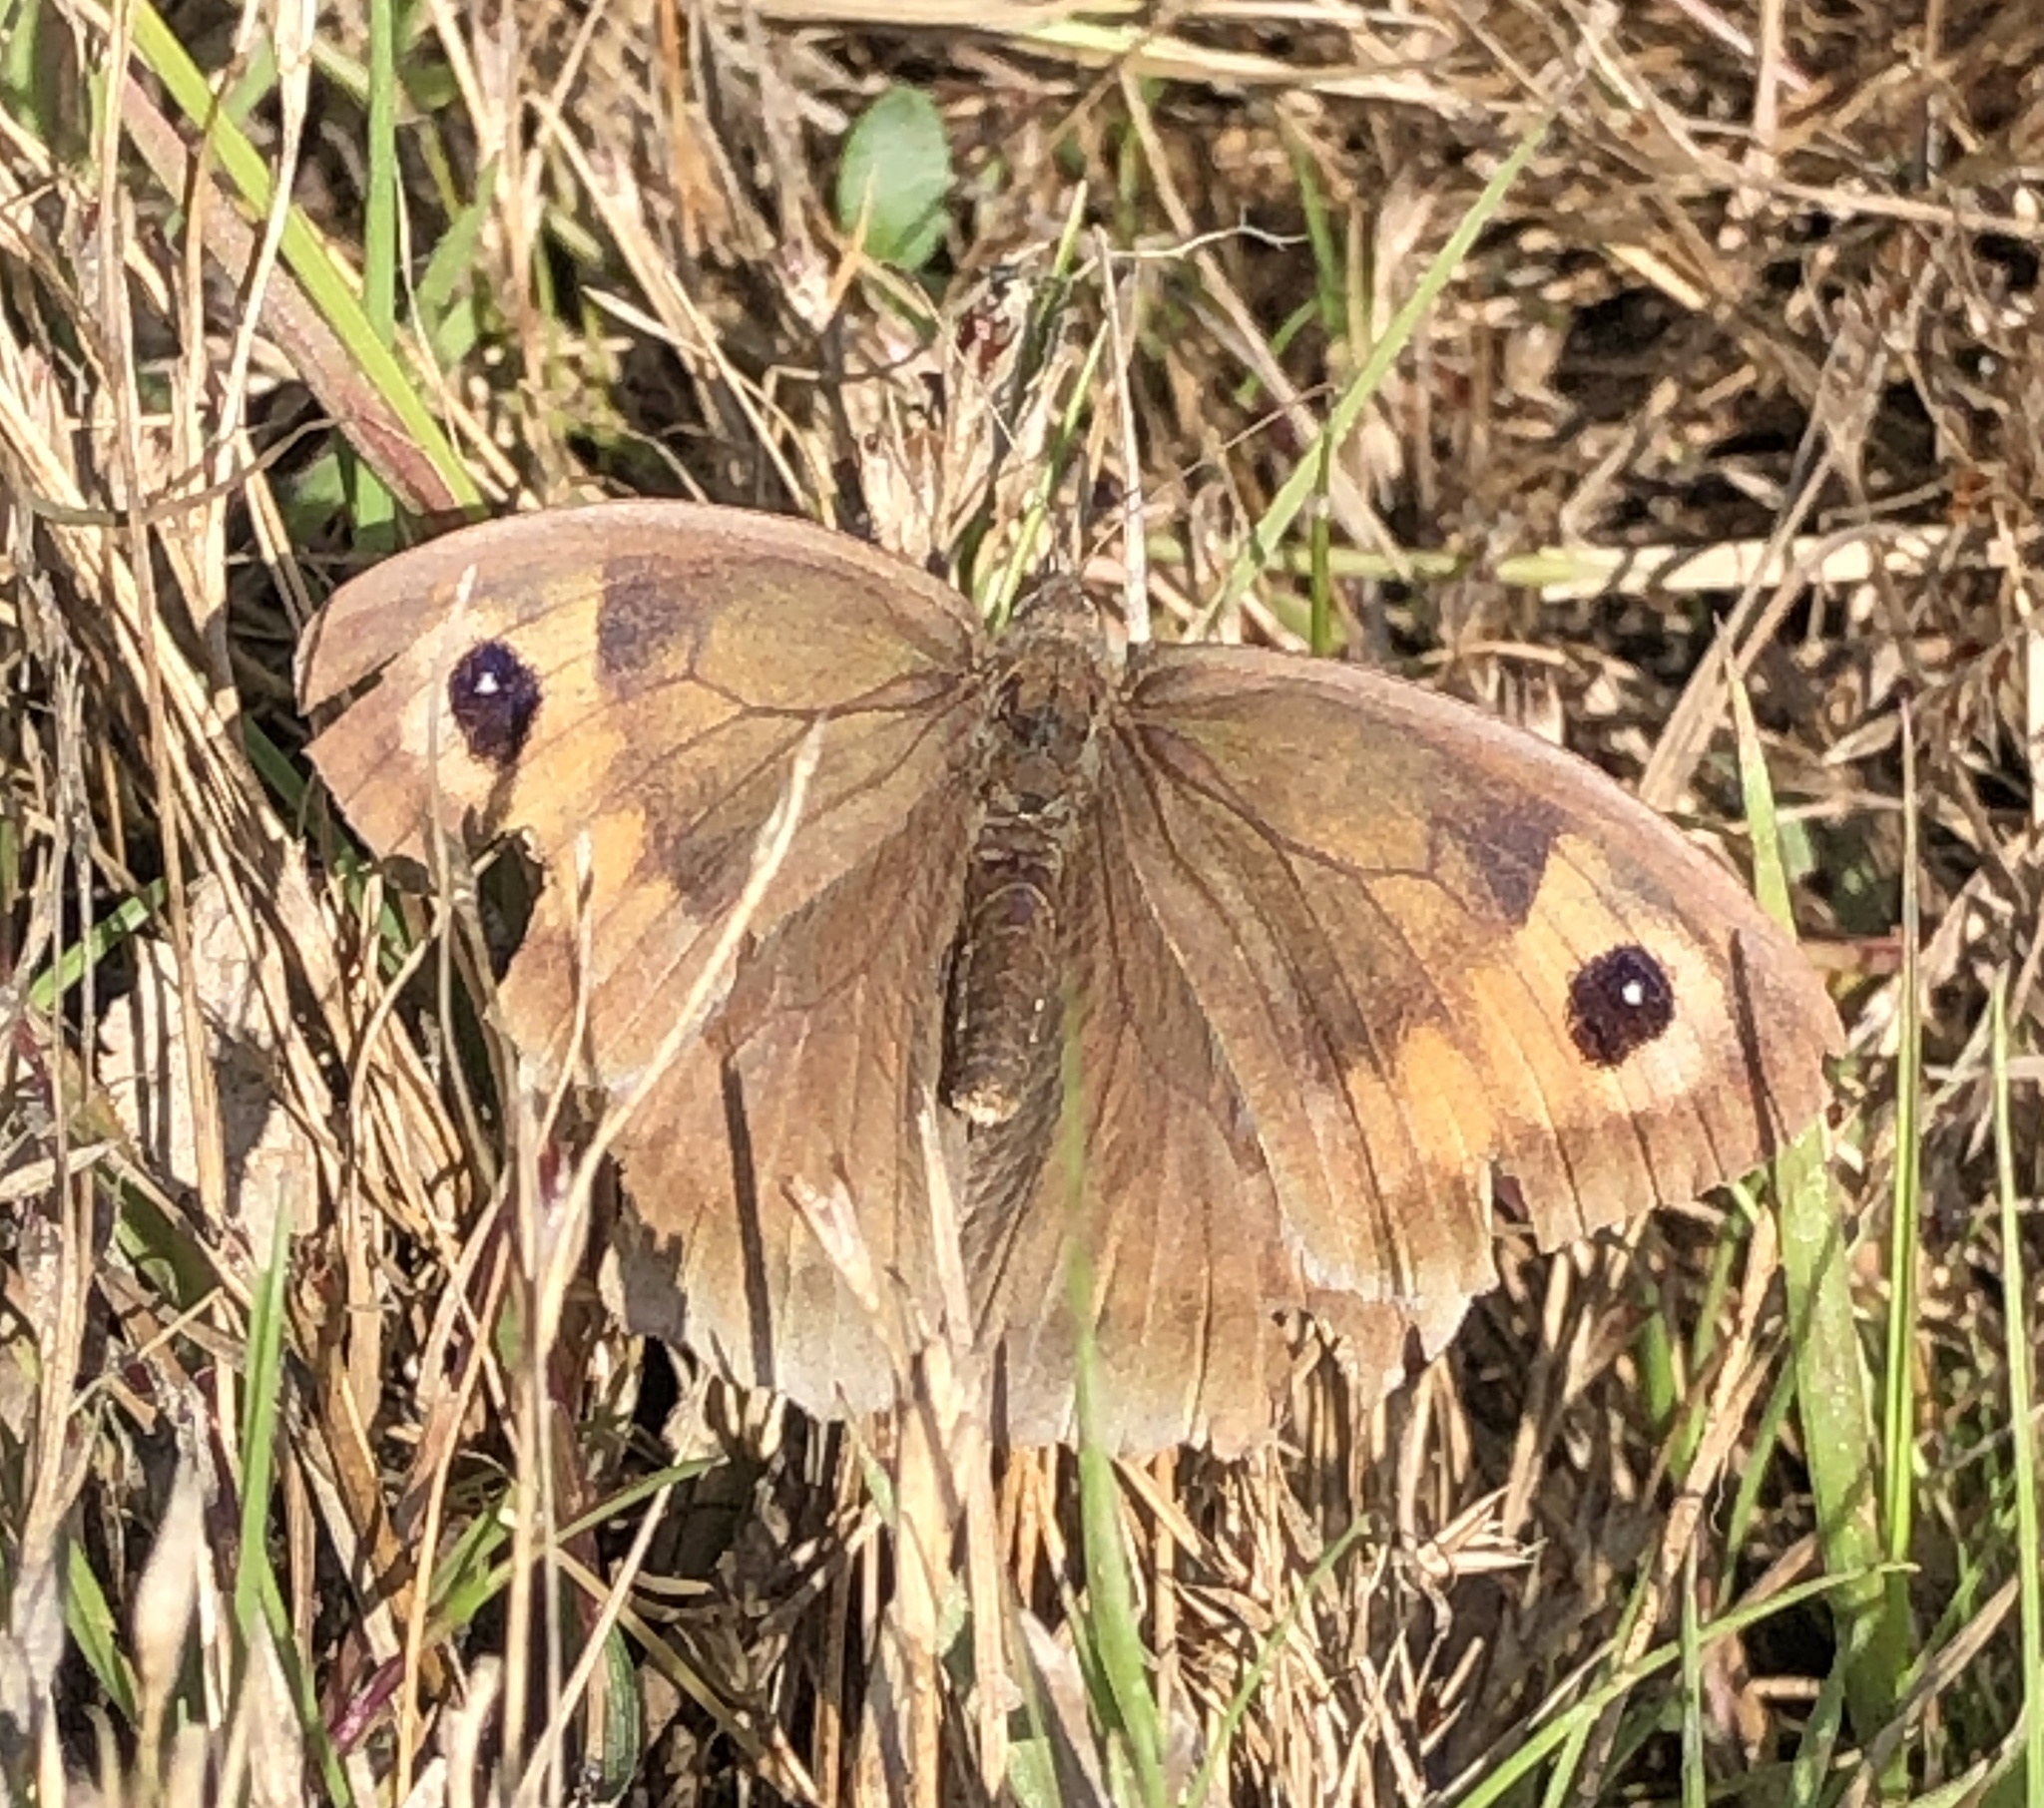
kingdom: Animalia
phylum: Arthropoda
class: Insecta
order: Lepidoptera
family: Nymphalidae
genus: Maniola
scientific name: Maniola jurtina
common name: Meadow brown
